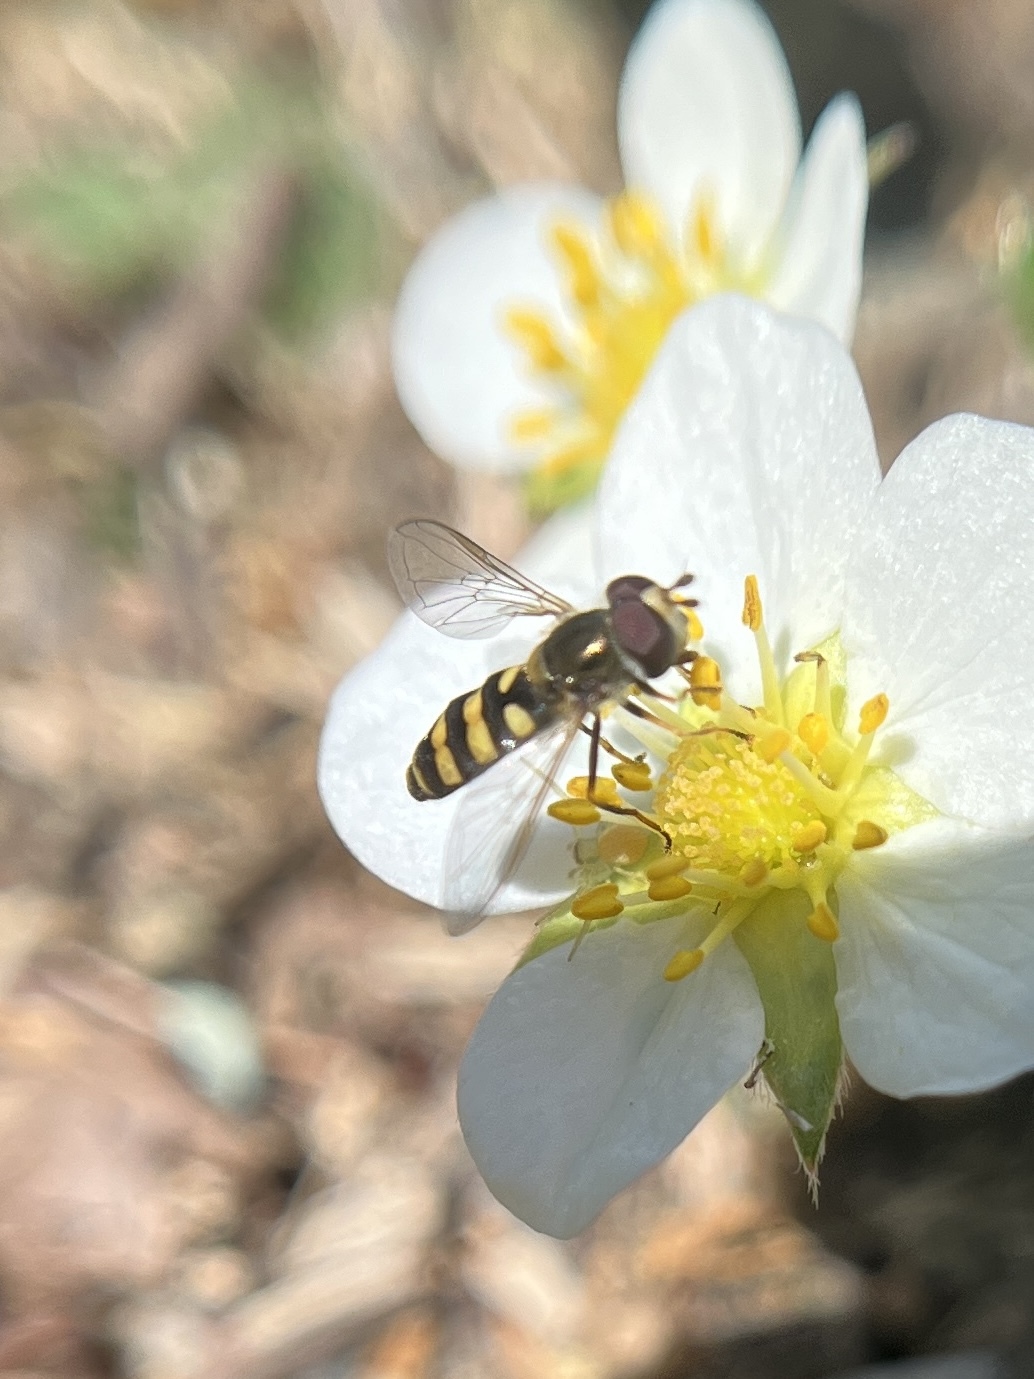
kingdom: Animalia
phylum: Arthropoda
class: Insecta
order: Diptera
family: Syrphidae
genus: Eupeodes
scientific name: Eupeodes
